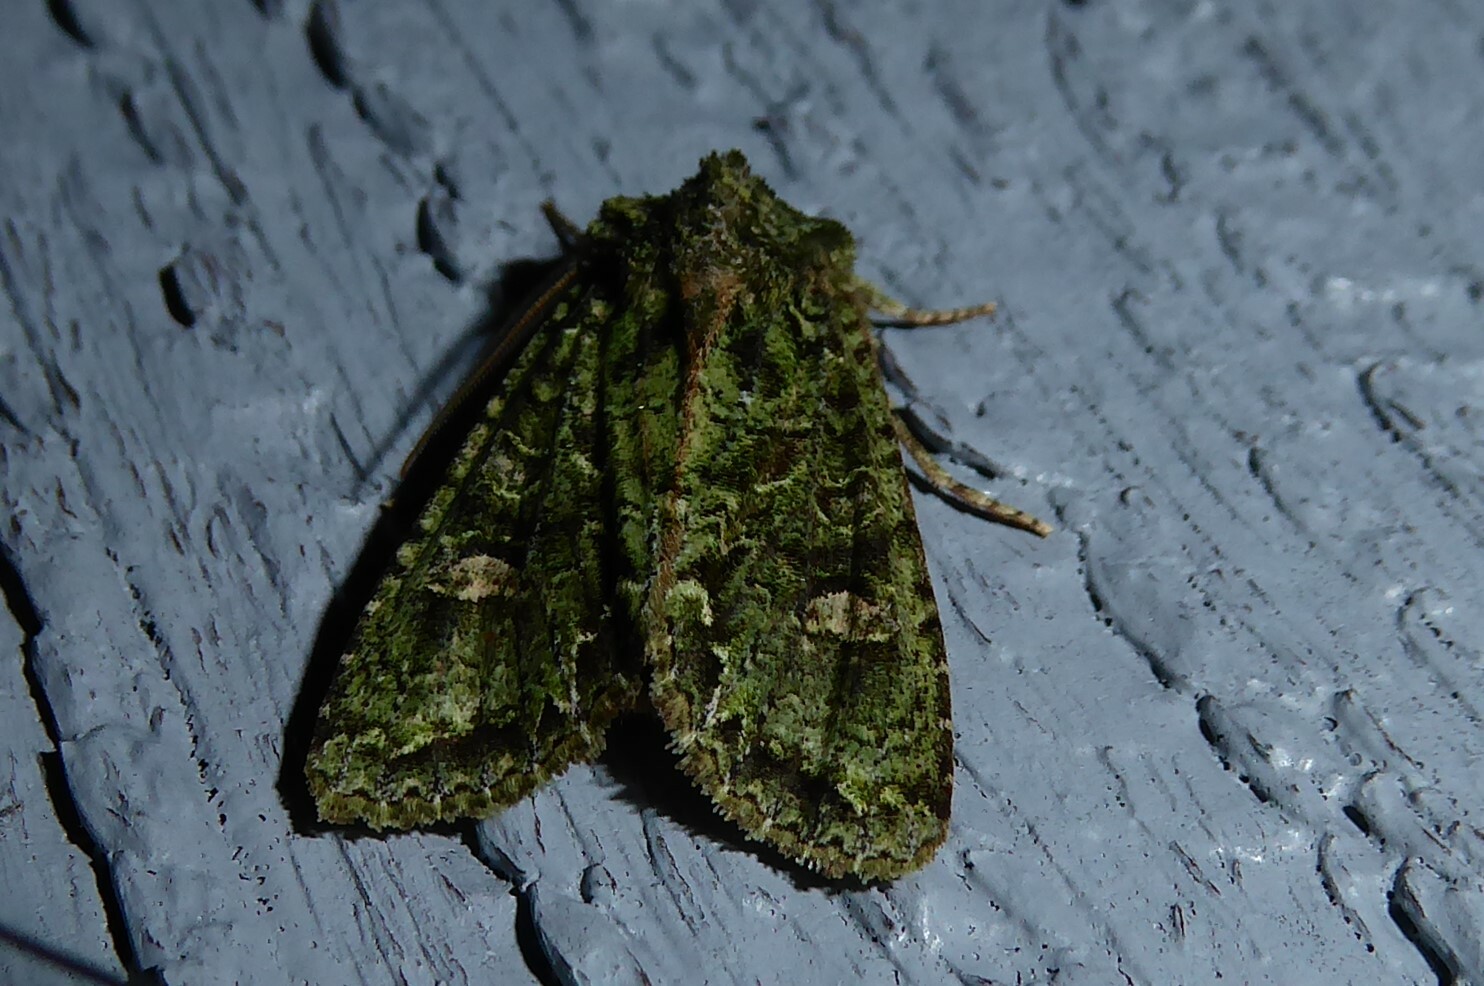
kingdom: Animalia
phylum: Arthropoda
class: Insecta
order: Lepidoptera
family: Noctuidae
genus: Ichneutica
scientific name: Ichneutica
